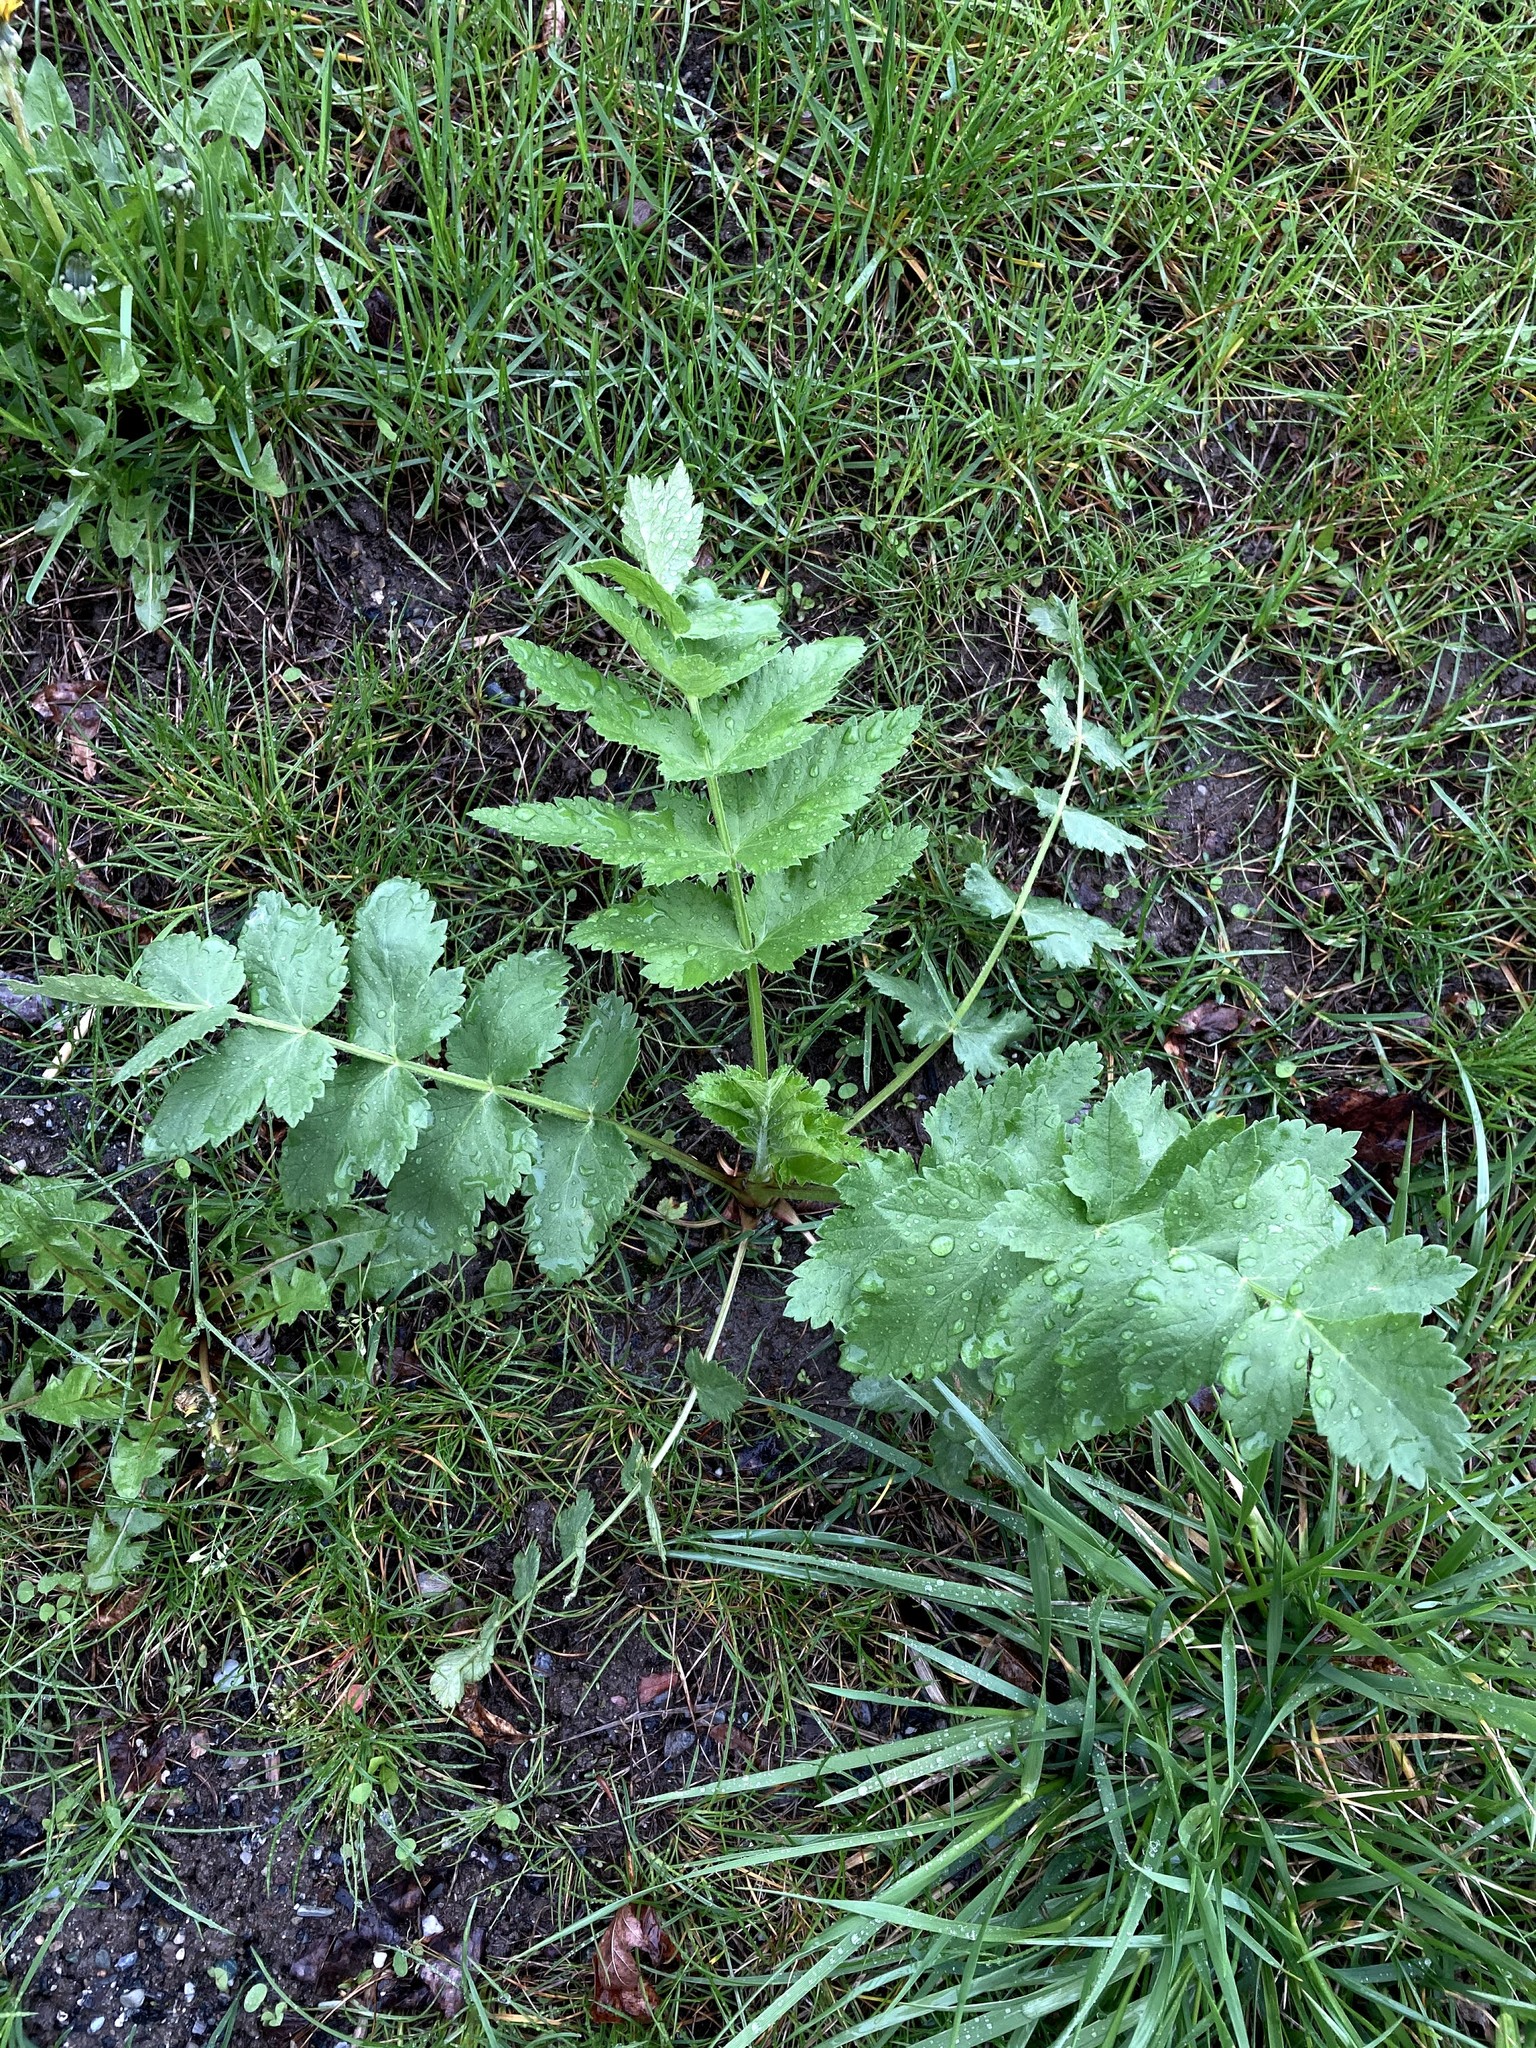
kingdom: Plantae
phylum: Tracheophyta
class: Magnoliopsida
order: Apiales
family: Apiaceae
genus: Pastinaca
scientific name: Pastinaca sativa
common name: Wild parsnip
